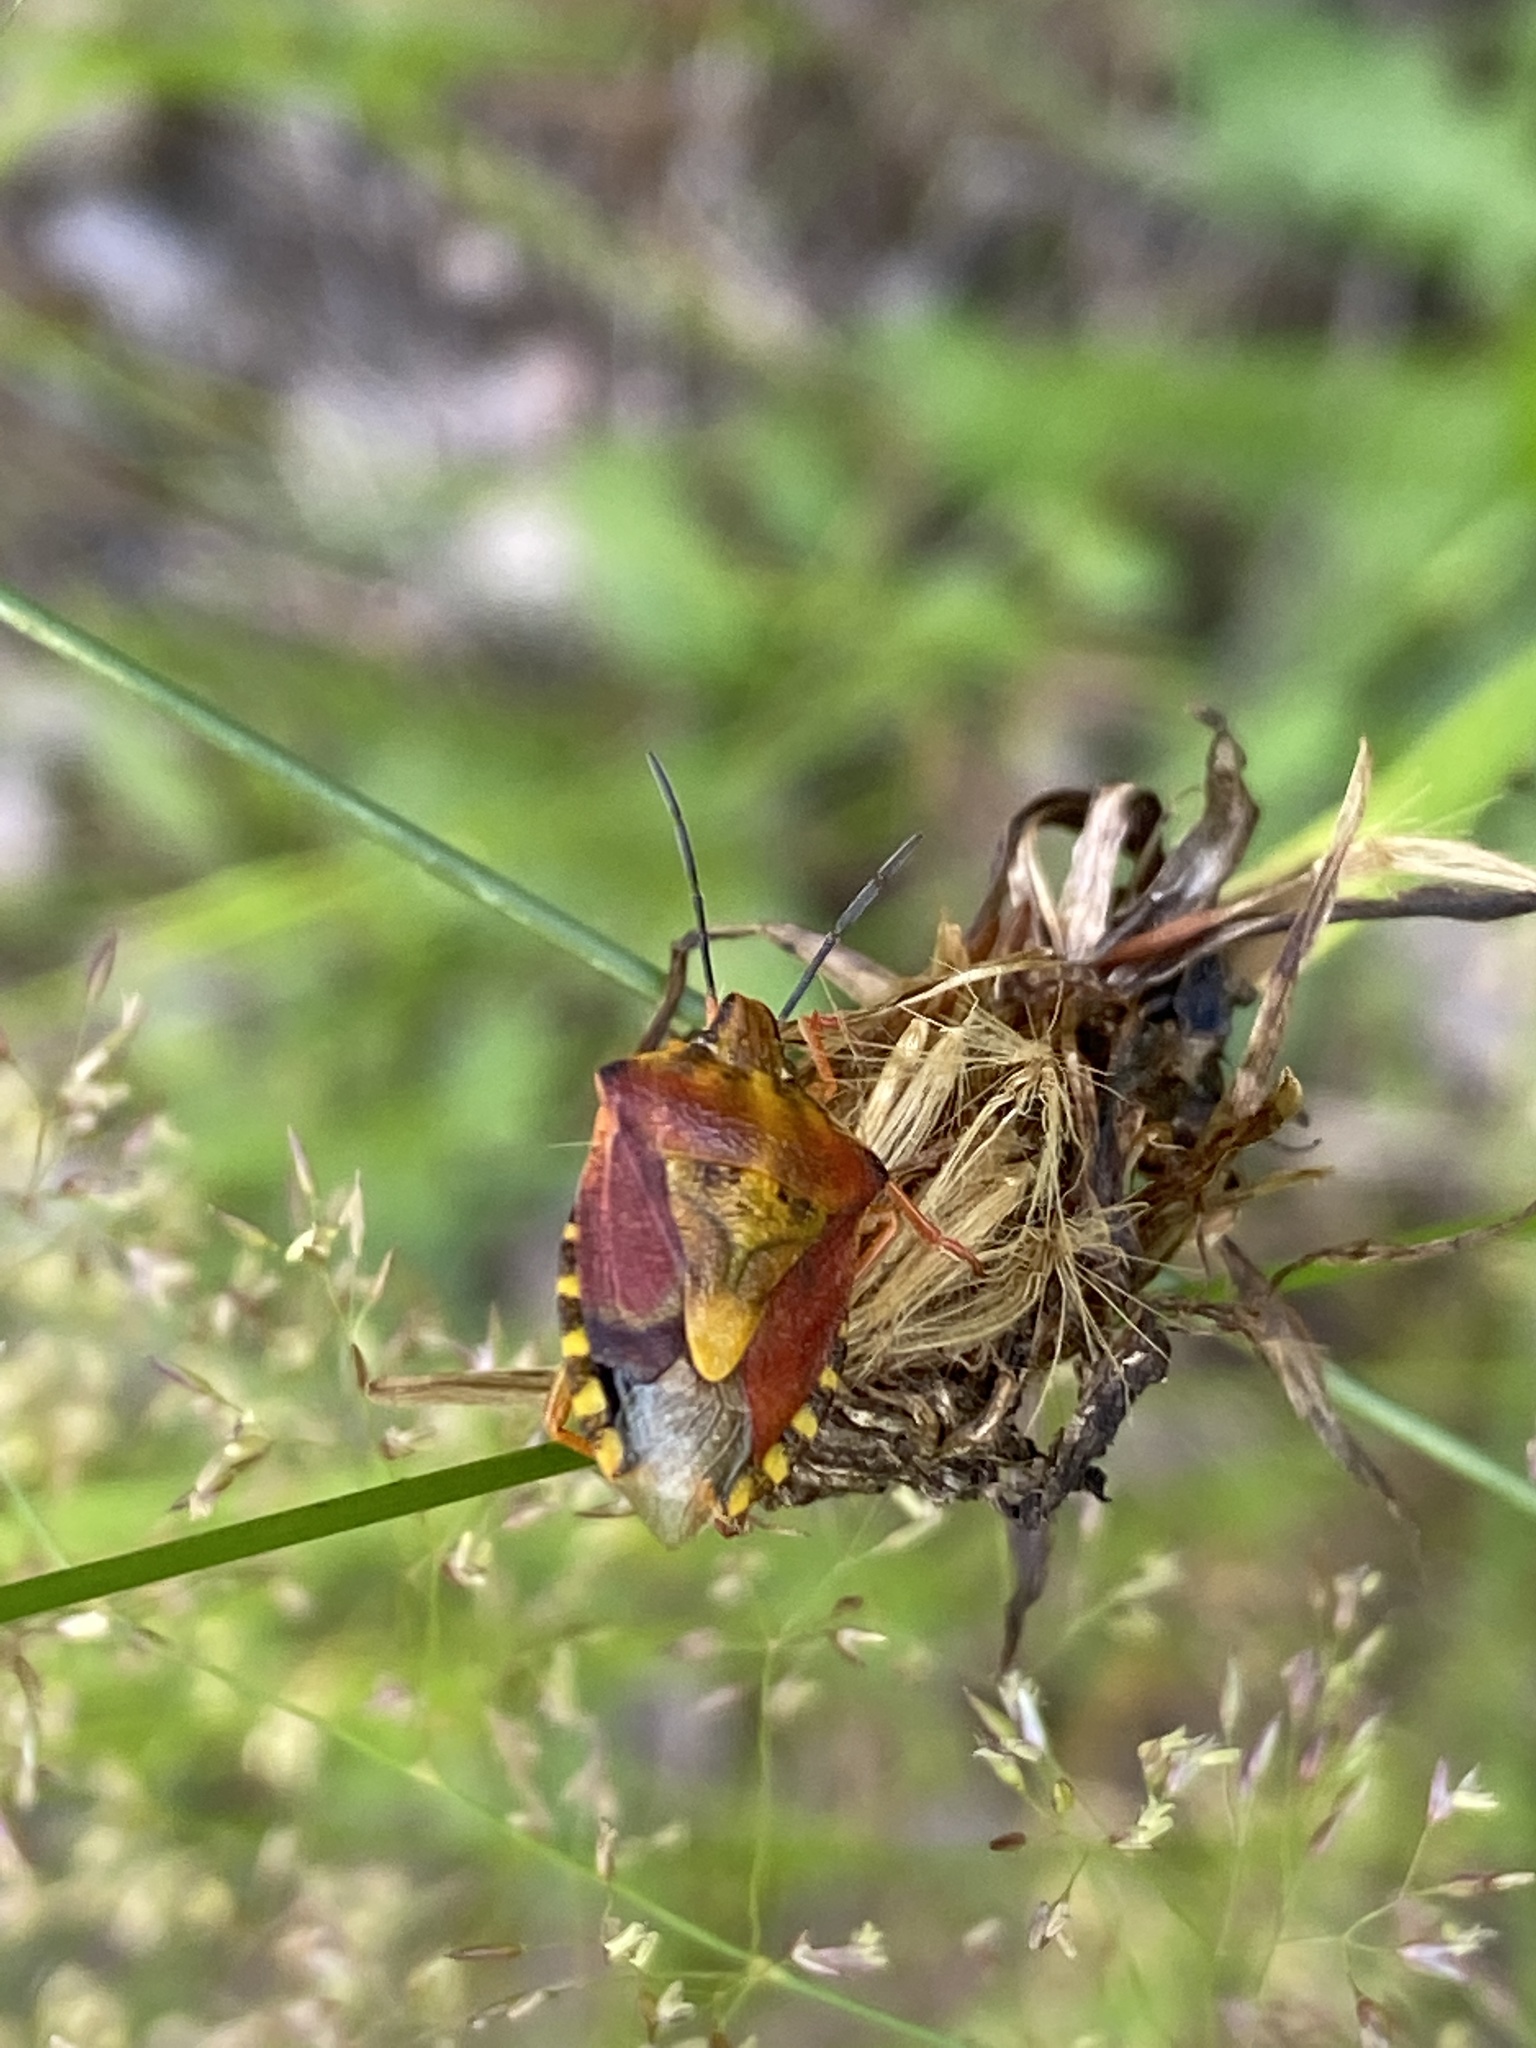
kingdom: Animalia
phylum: Arthropoda
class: Insecta
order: Hemiptera
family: Pentatomidae
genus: Carpocoris
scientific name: Carpocoris purpureipennis
